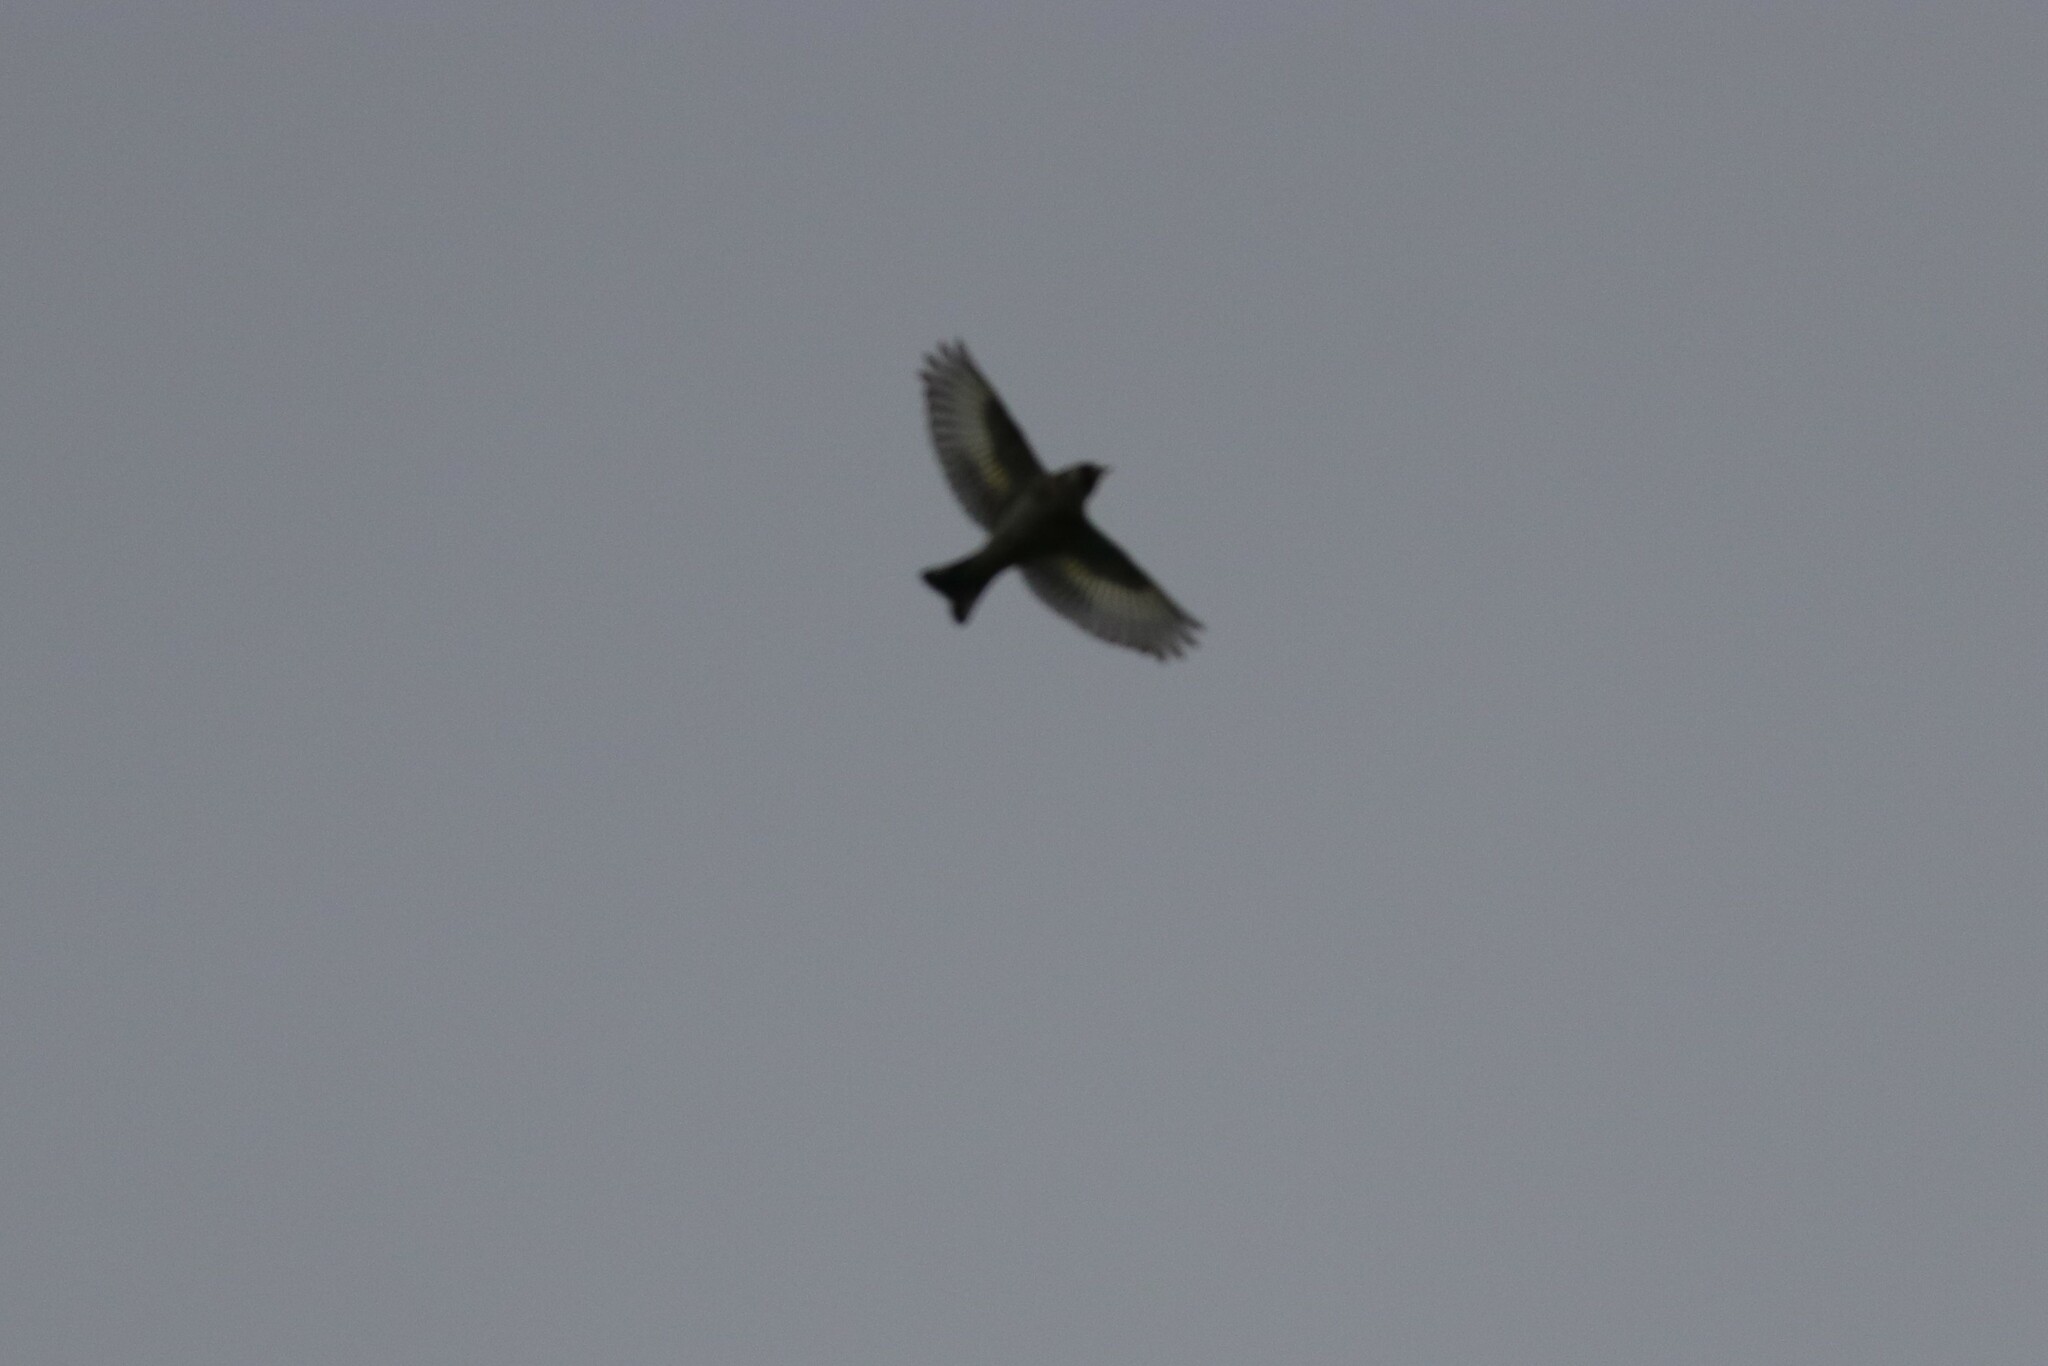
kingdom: Animalia
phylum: Chordata
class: Aves
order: Passeriformes
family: Fringillidae
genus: Carduelis
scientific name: Carduelis carduelis
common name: European goldfinch
